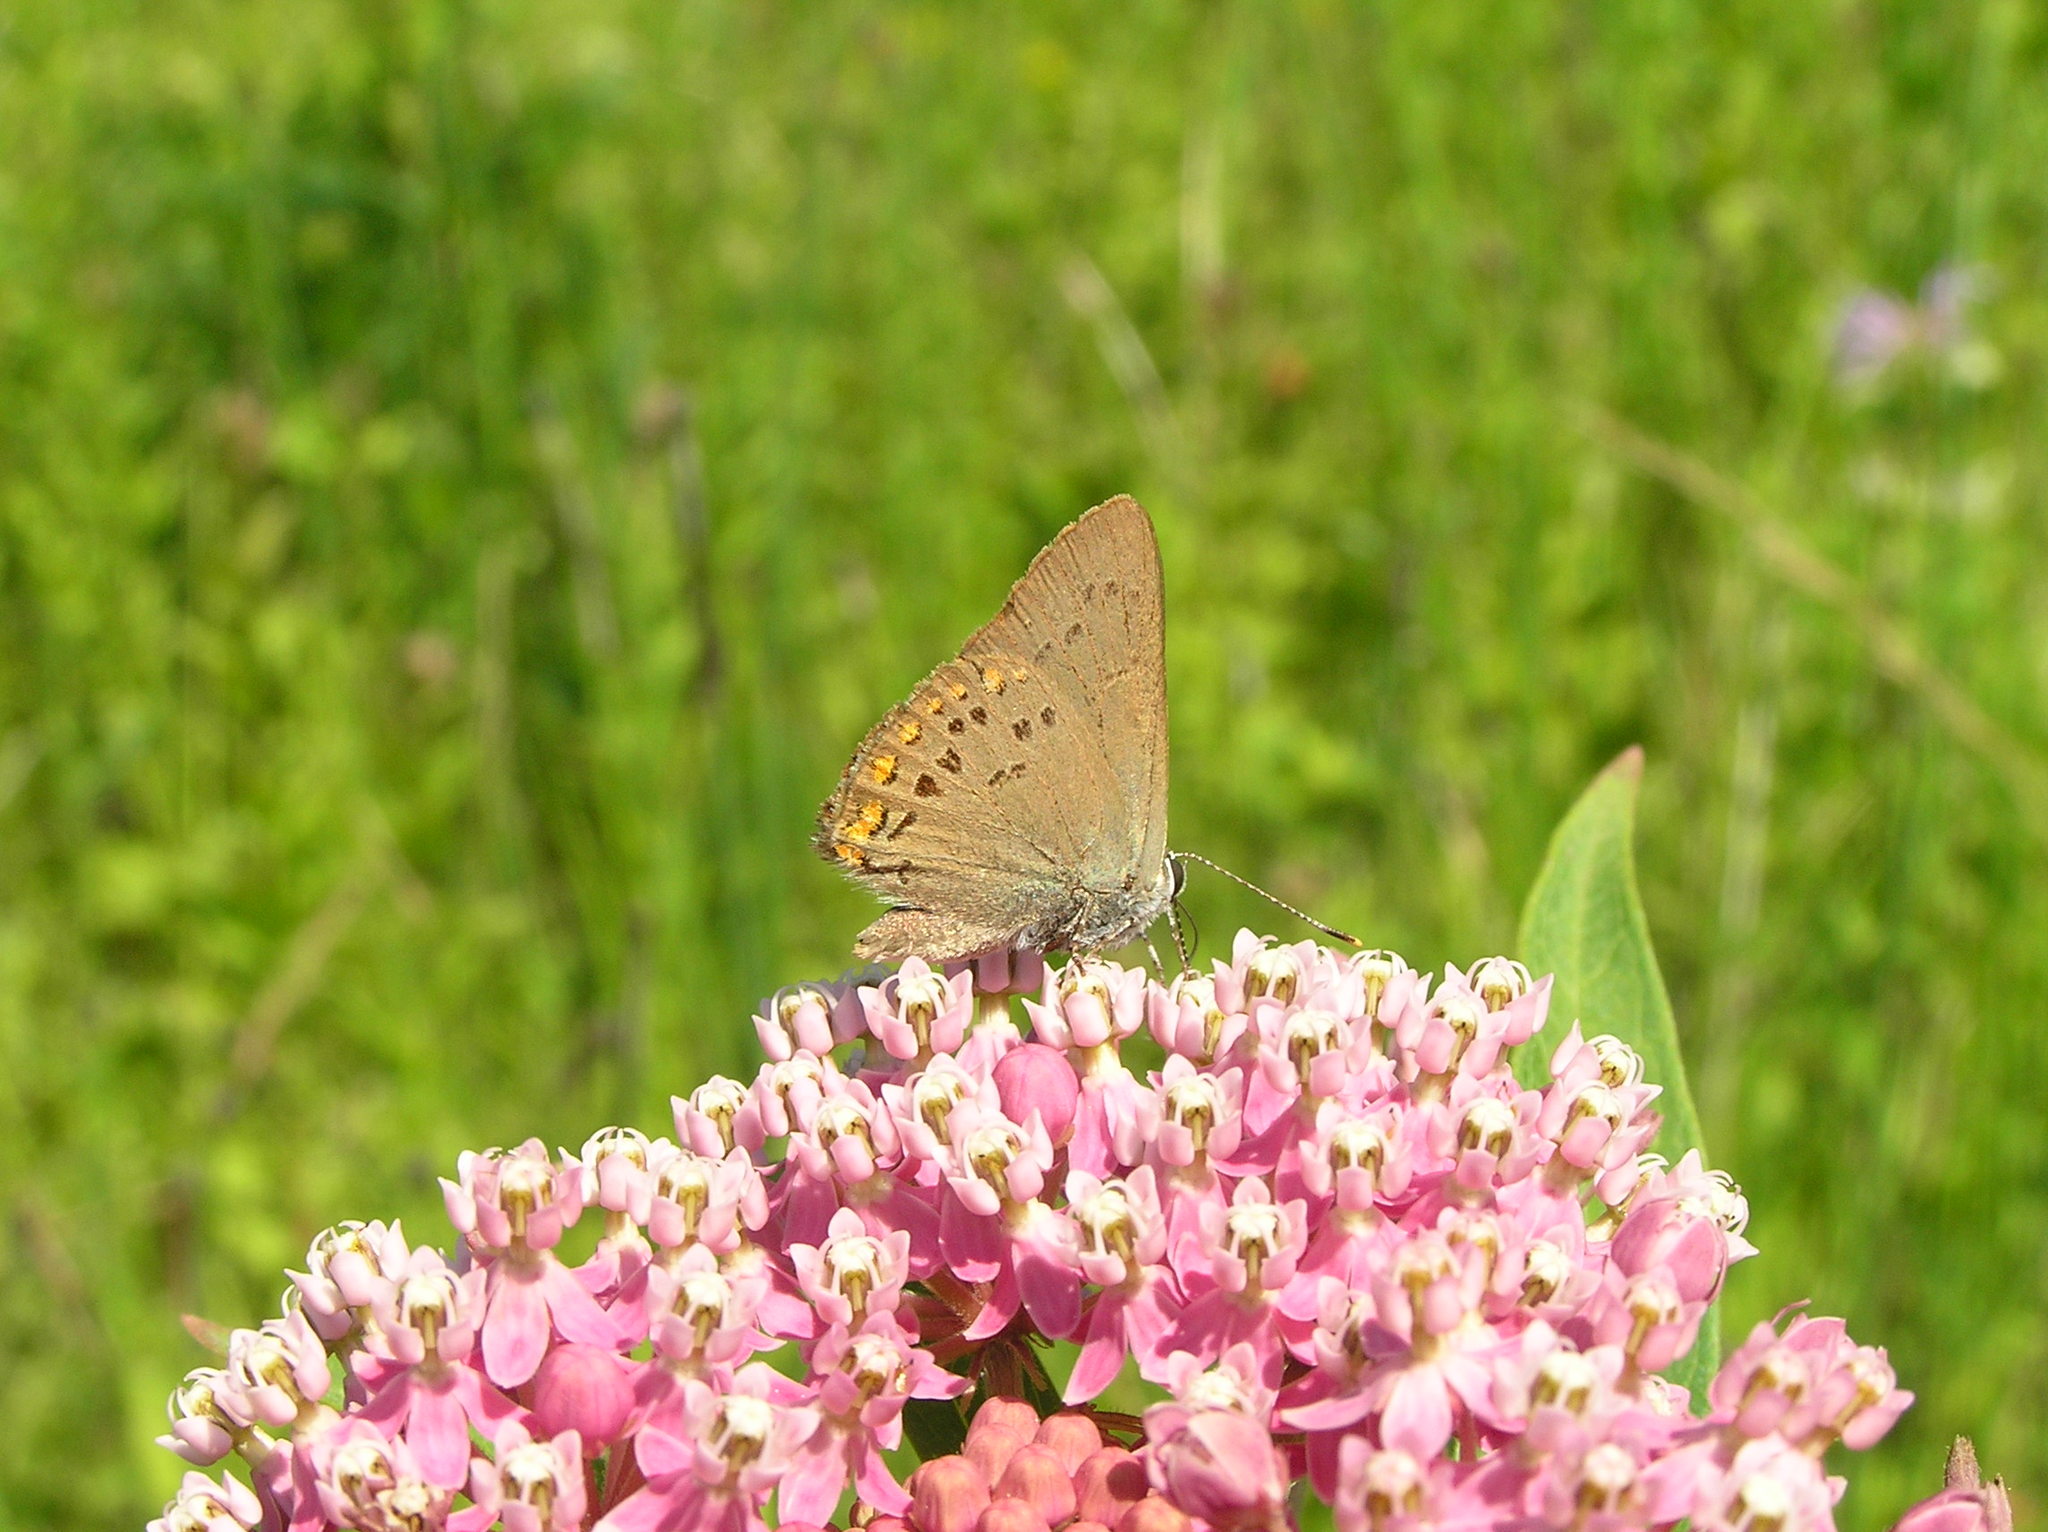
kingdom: Animalia
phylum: Arthropoda
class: Insecta
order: Lepidoptera
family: Lycaenidae
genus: Harkenclenus
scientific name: Harkenclenus titus
